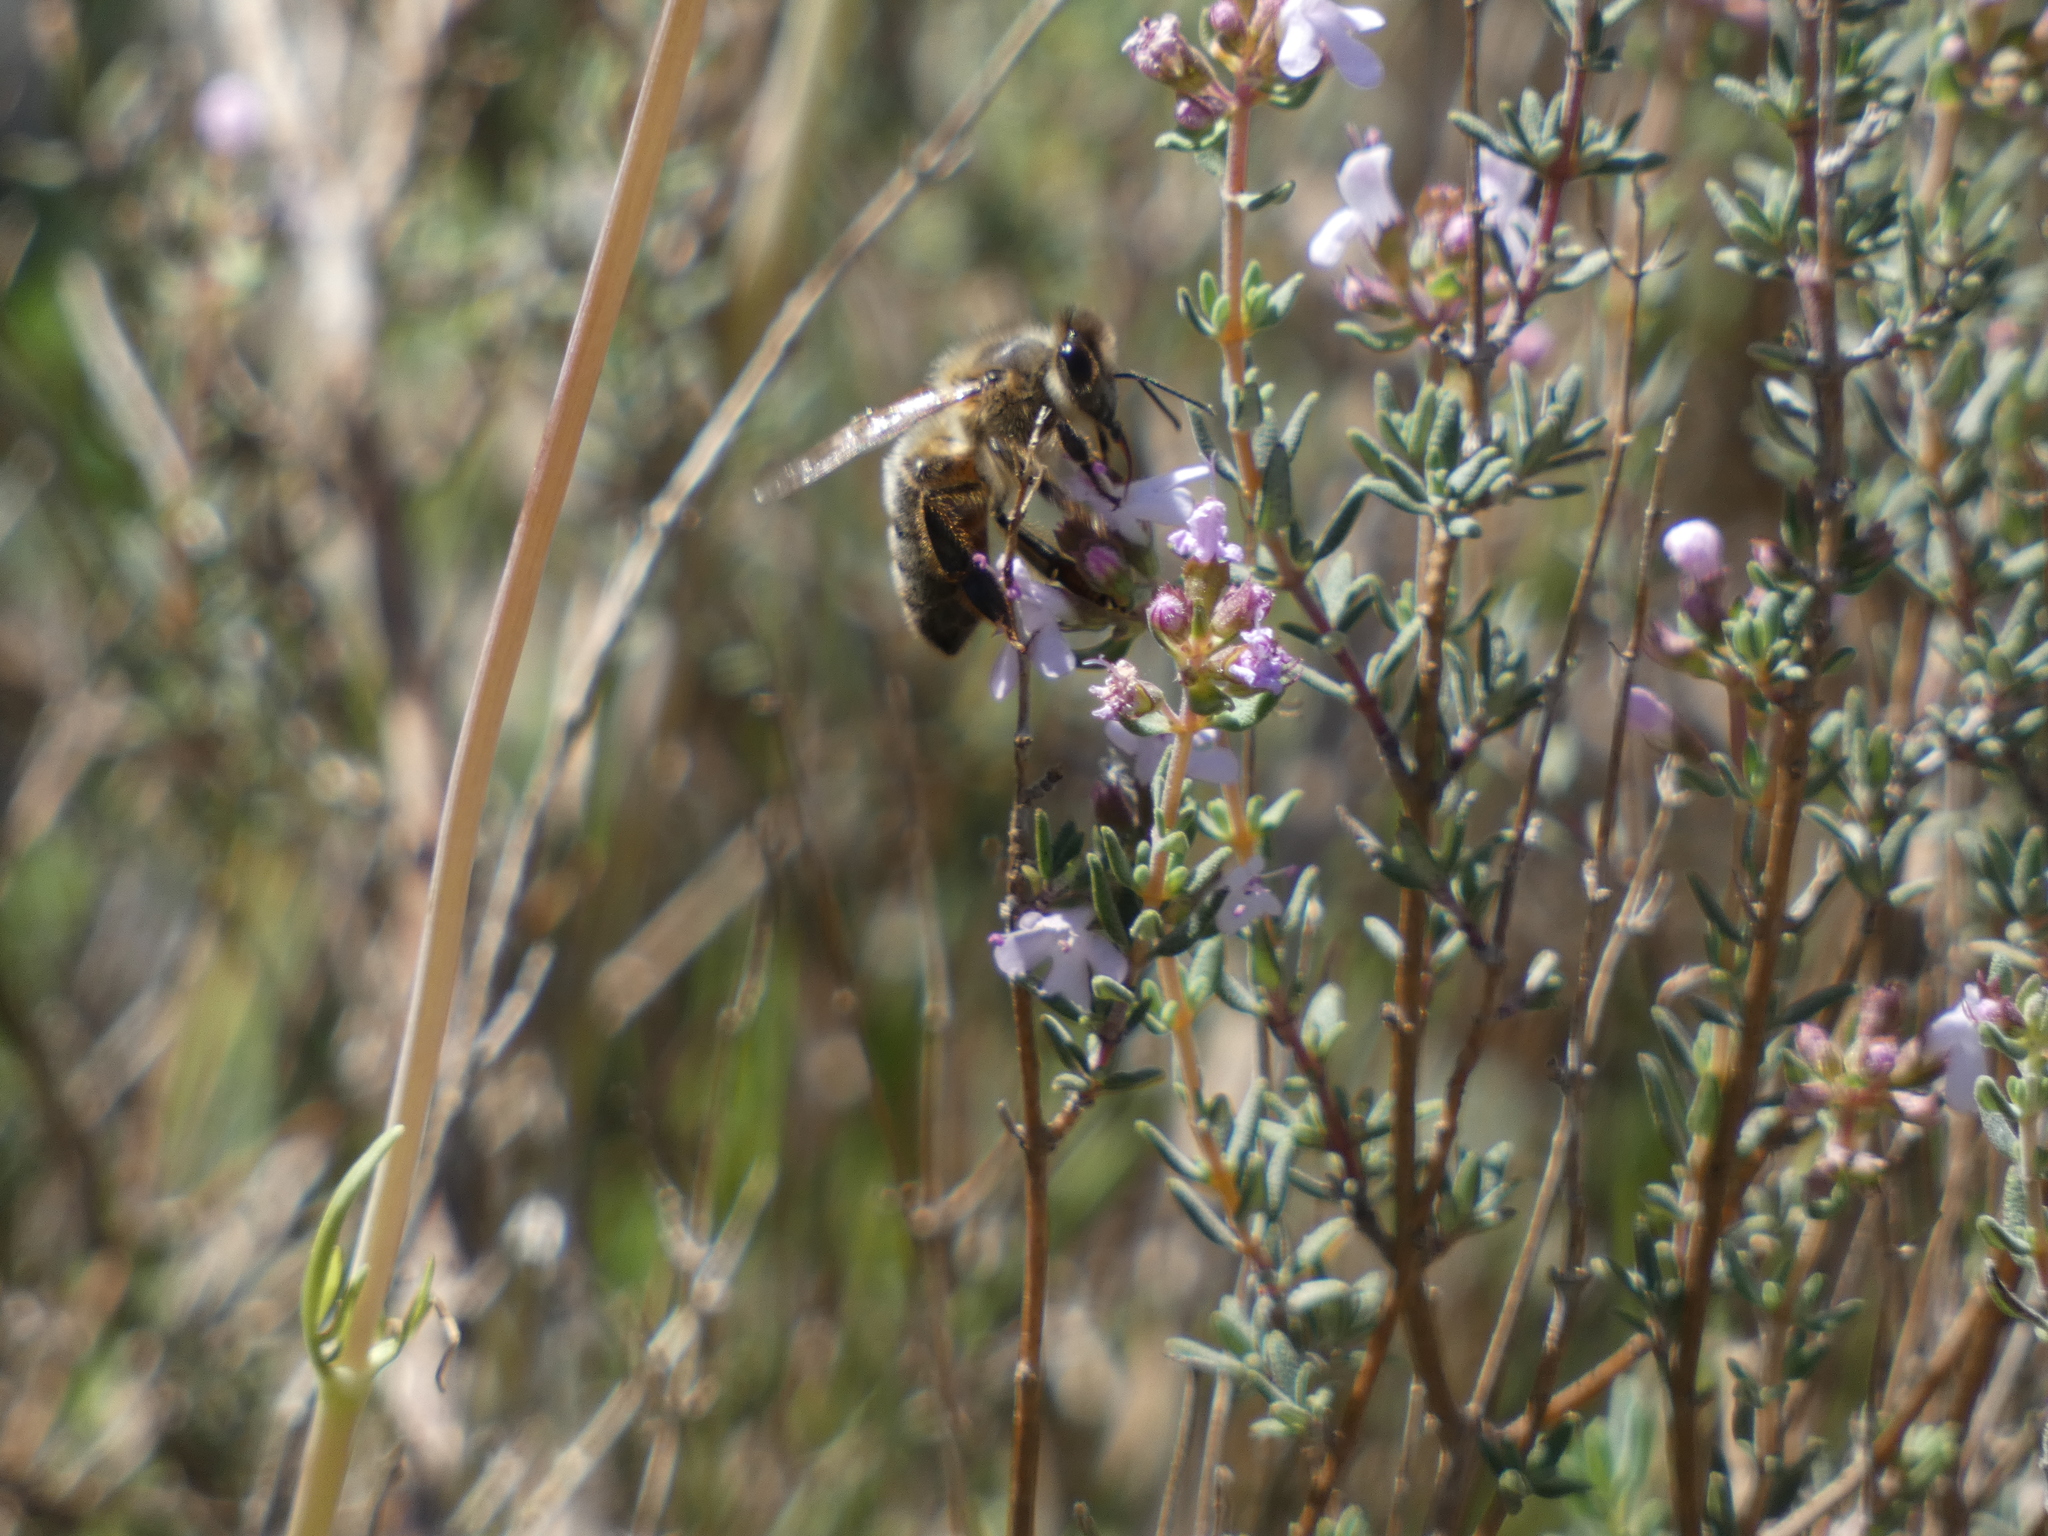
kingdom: Animalia
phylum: Arthropoda
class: Insecta
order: Hymenoptera
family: Apidae
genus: Apis
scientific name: Apis mellifera
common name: Honey bee
